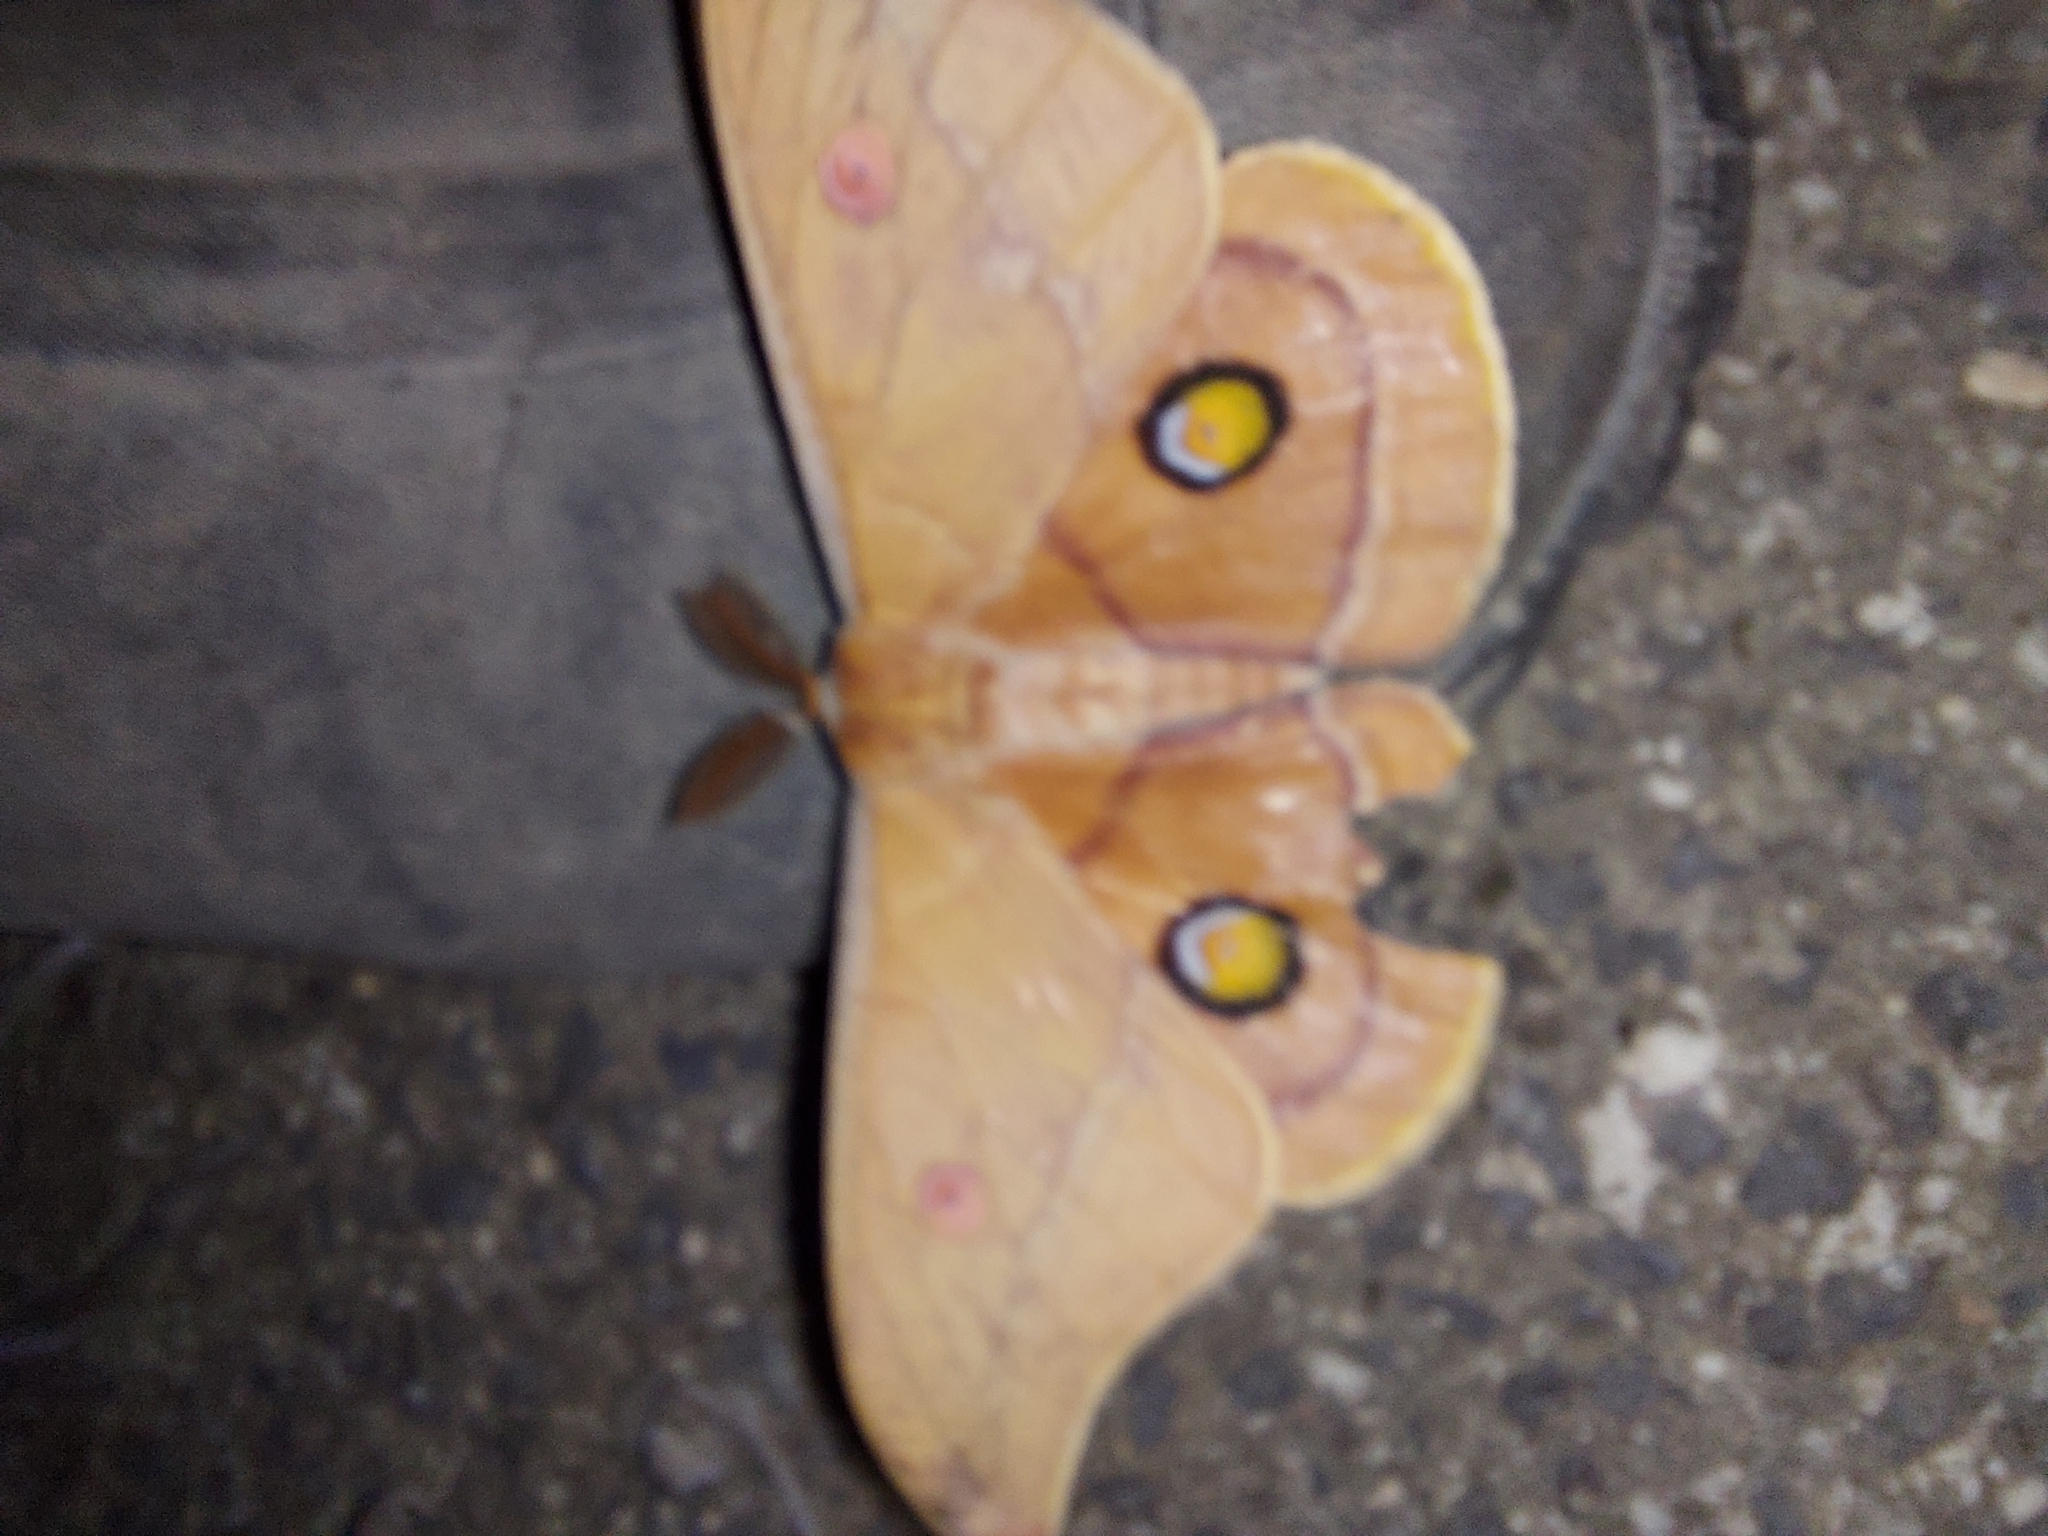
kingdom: Animalia
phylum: Arthropoda
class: Insecta
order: Lepidoptera
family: Saturniidae
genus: Opodiphthera
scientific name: Opodiphthera
